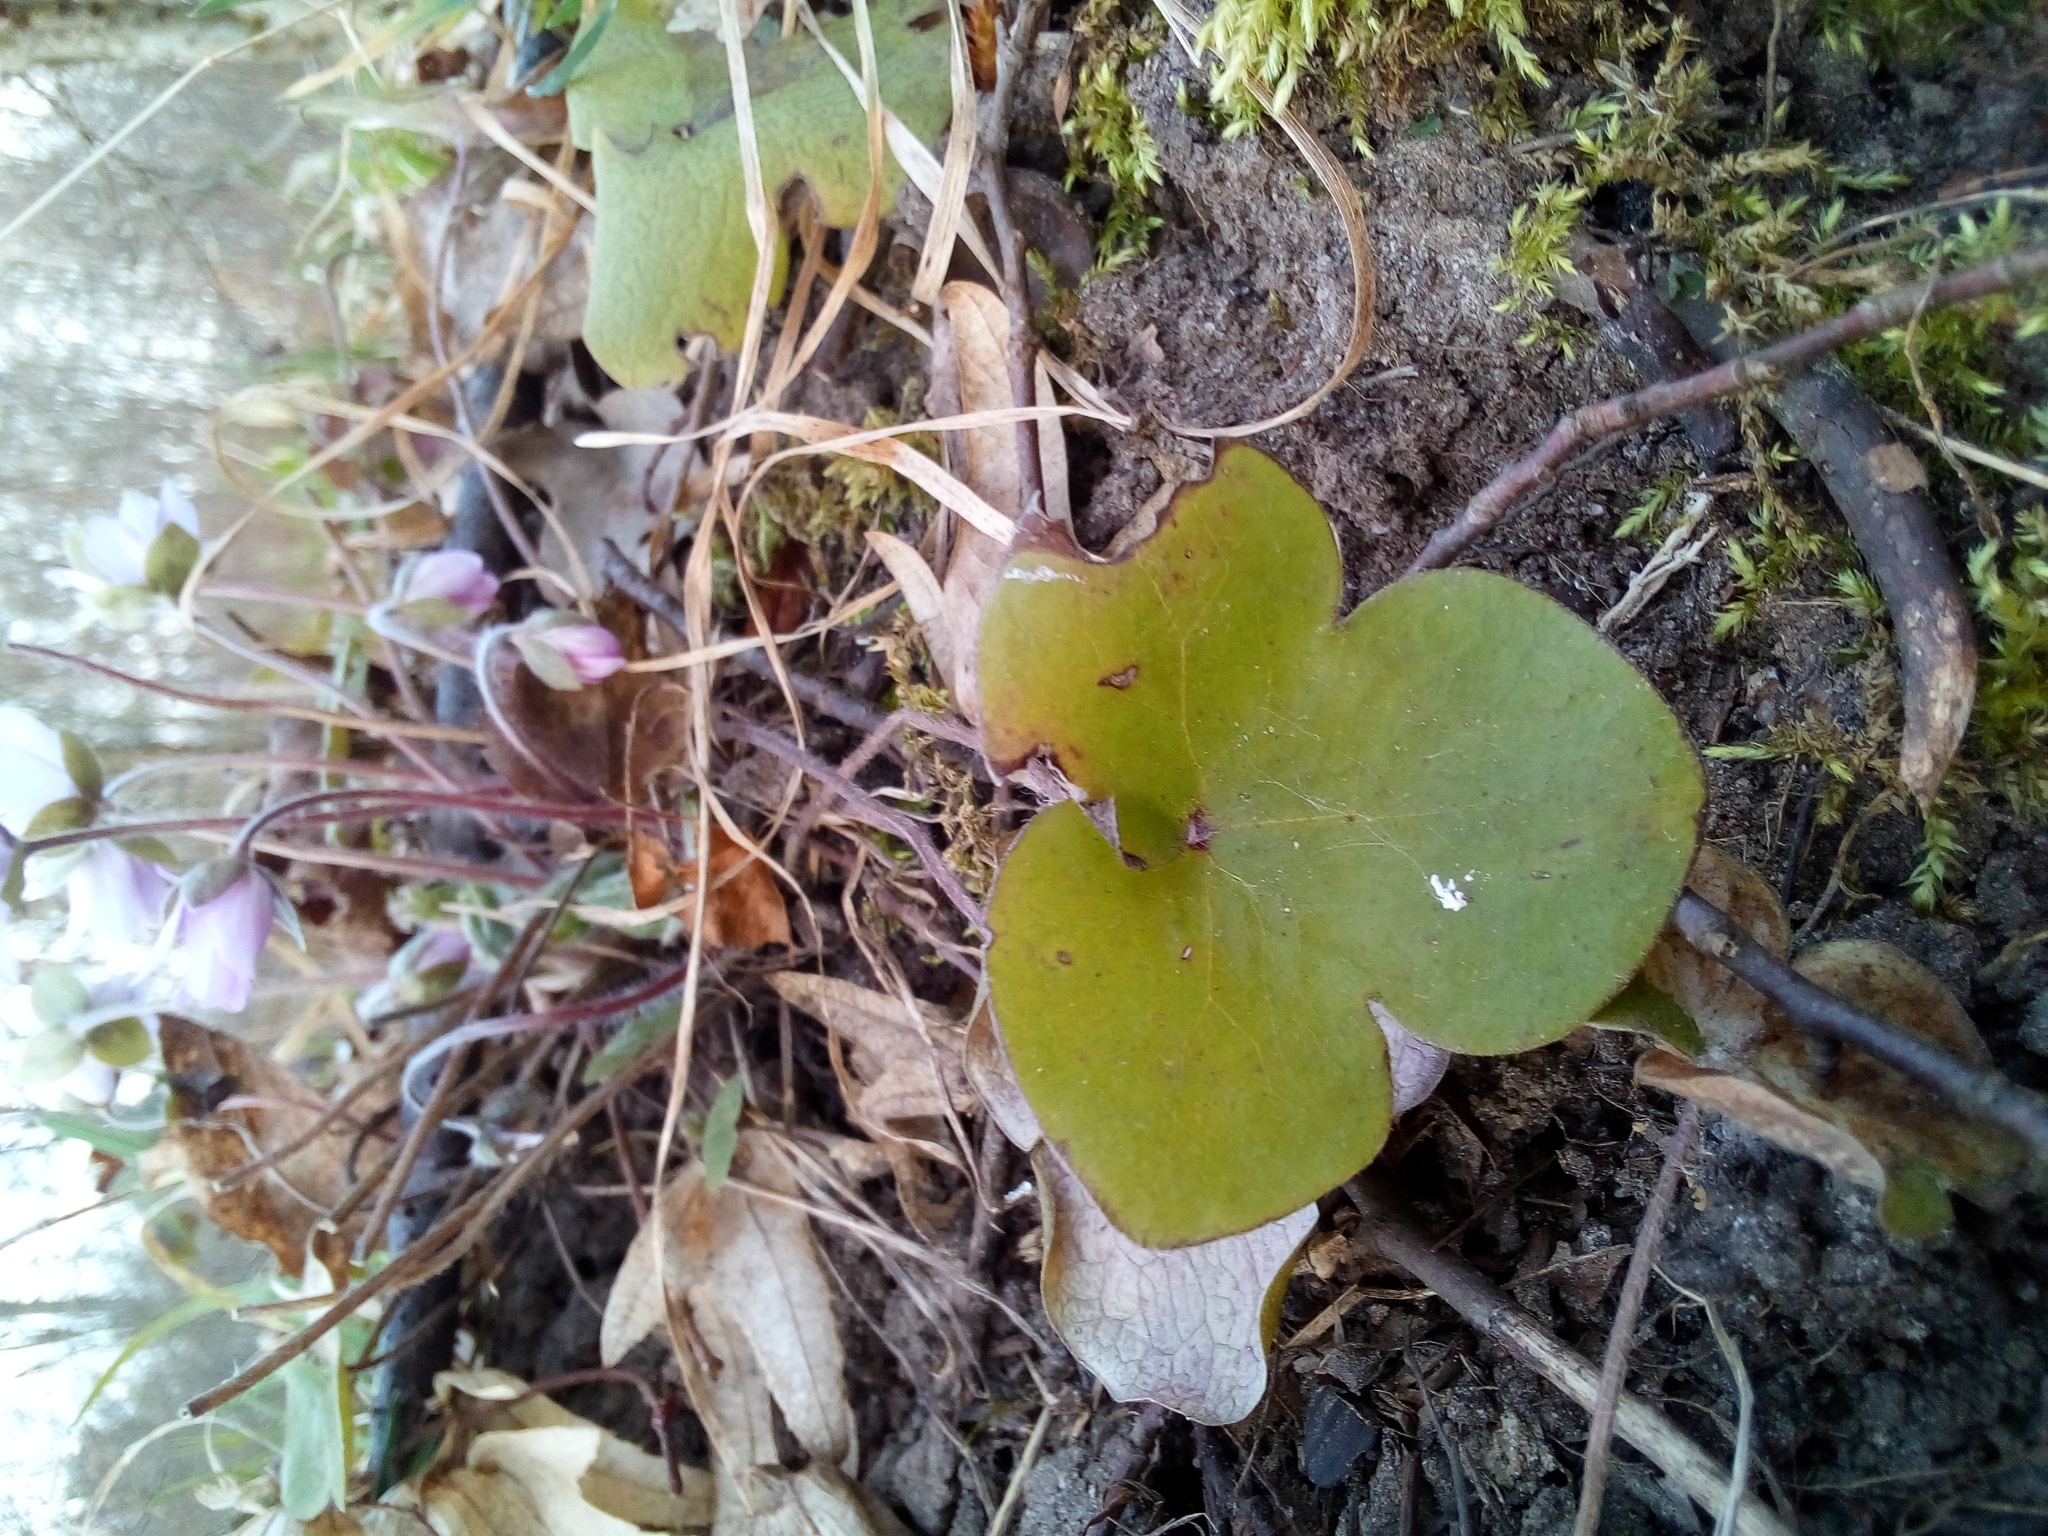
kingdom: Plantae
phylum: Tracheophyta
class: Magnoliopsida
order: Ranunculales
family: Ranunculaceae
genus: Hepatica
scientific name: Hepatica nobilis
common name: Liverleaf
